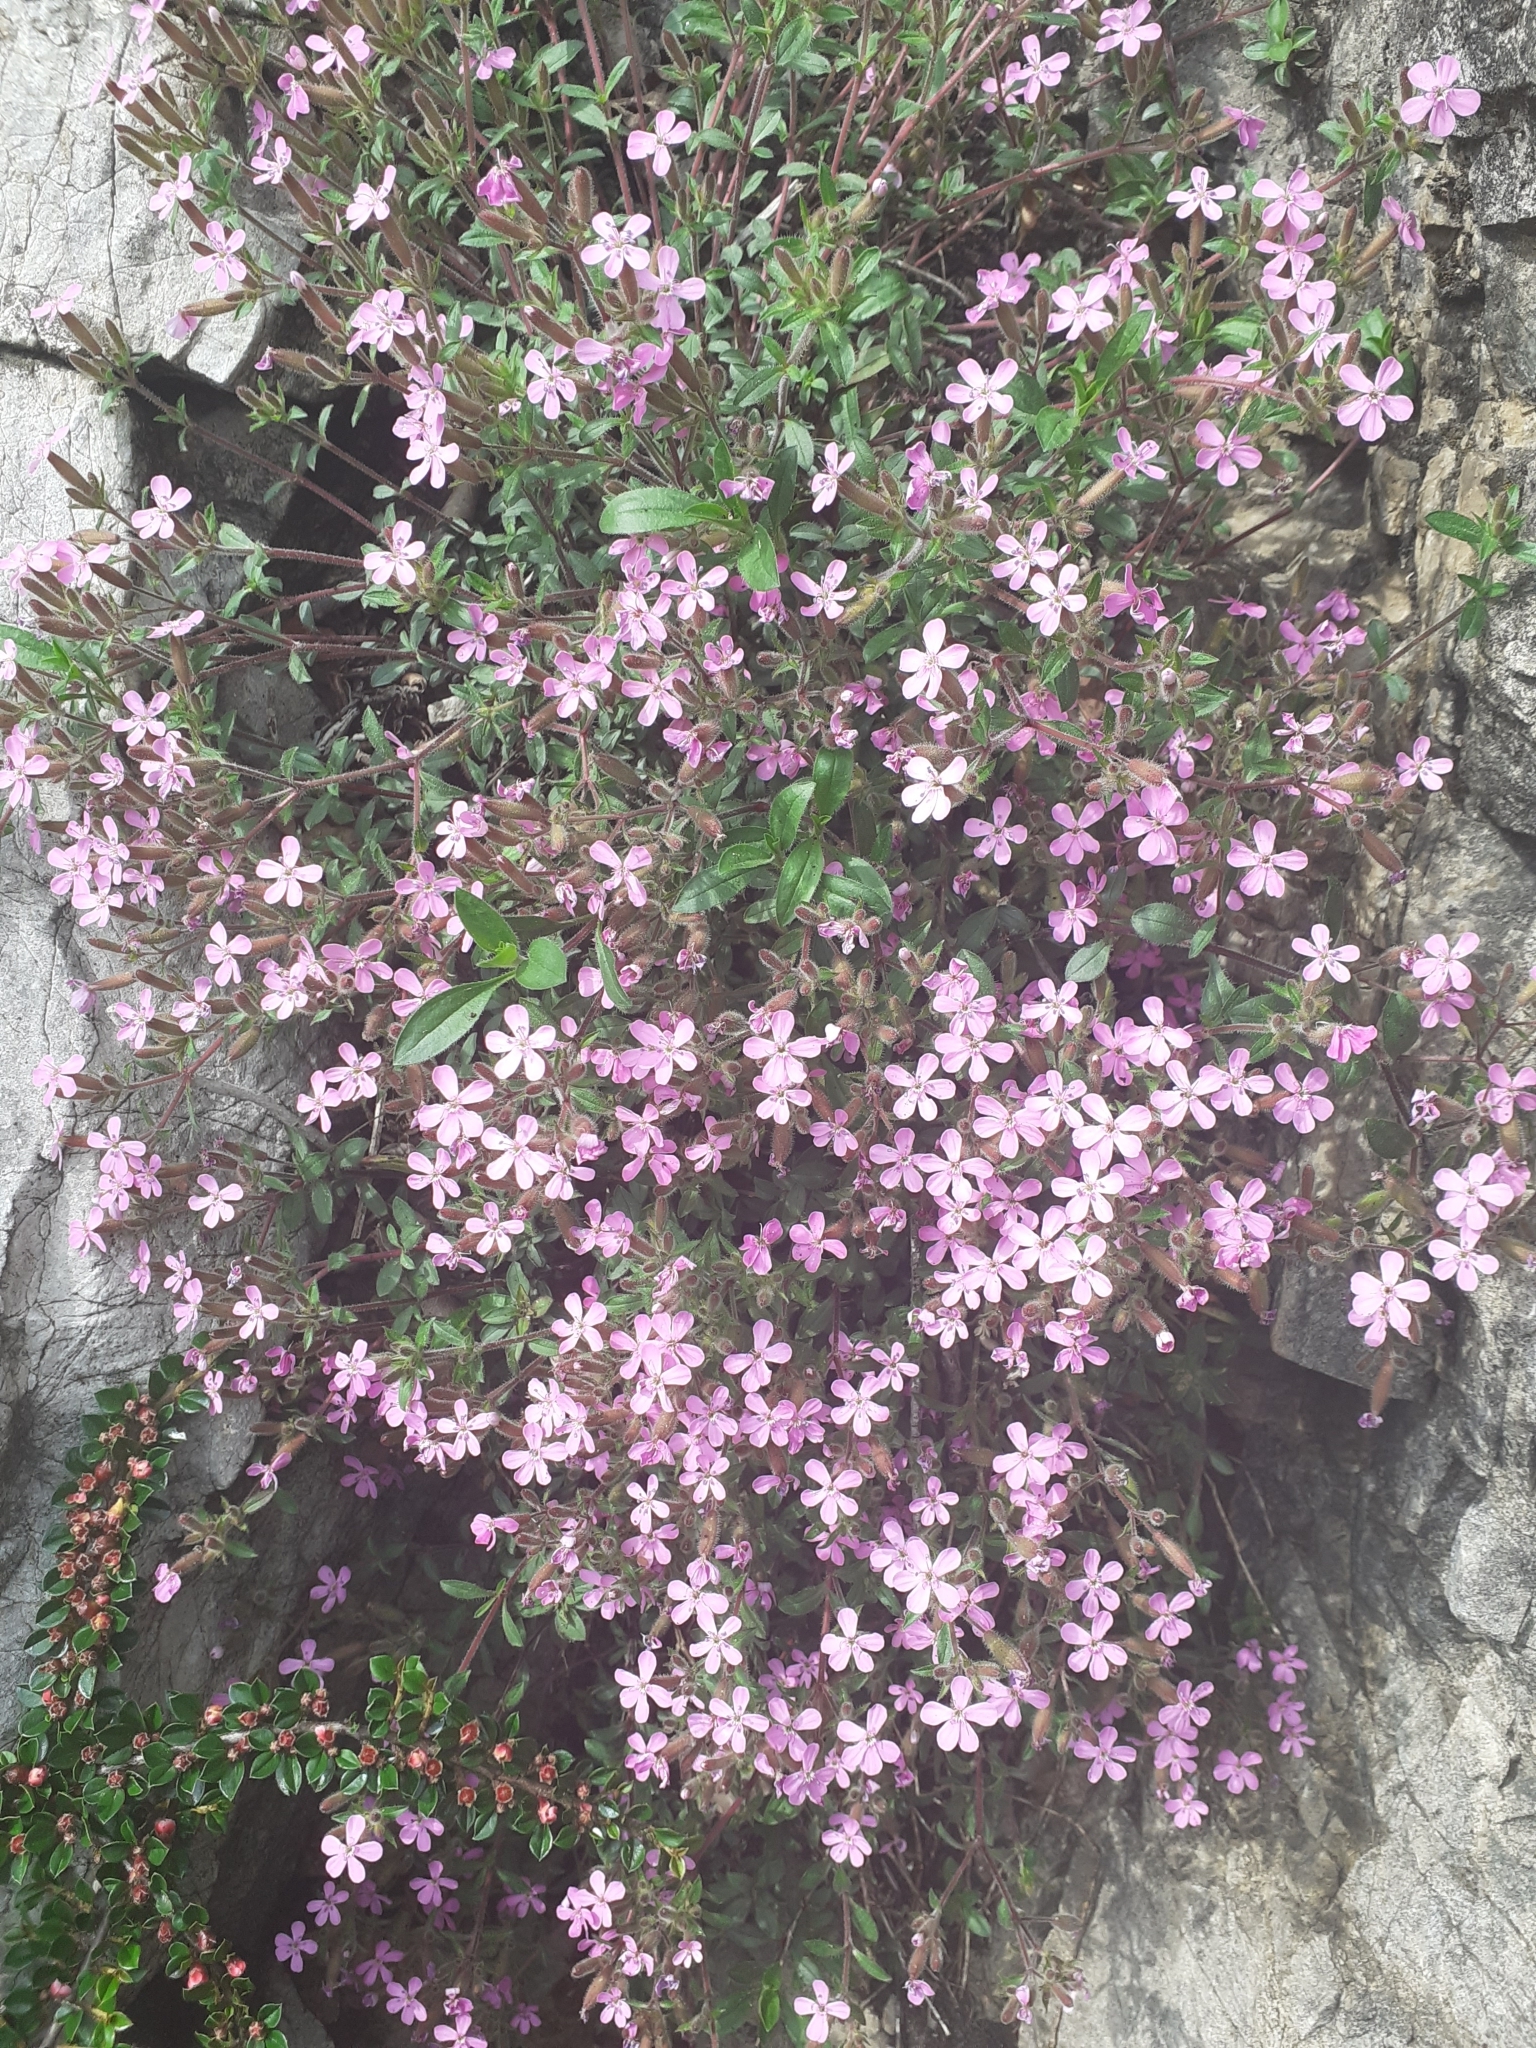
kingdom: Plantae
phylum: Tracheophyta
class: Magnoliopsida
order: Caryophyllales
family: Caryophyllaceae
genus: Saponaria
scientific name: Saponaria ocymoides
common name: Rock soapwort
